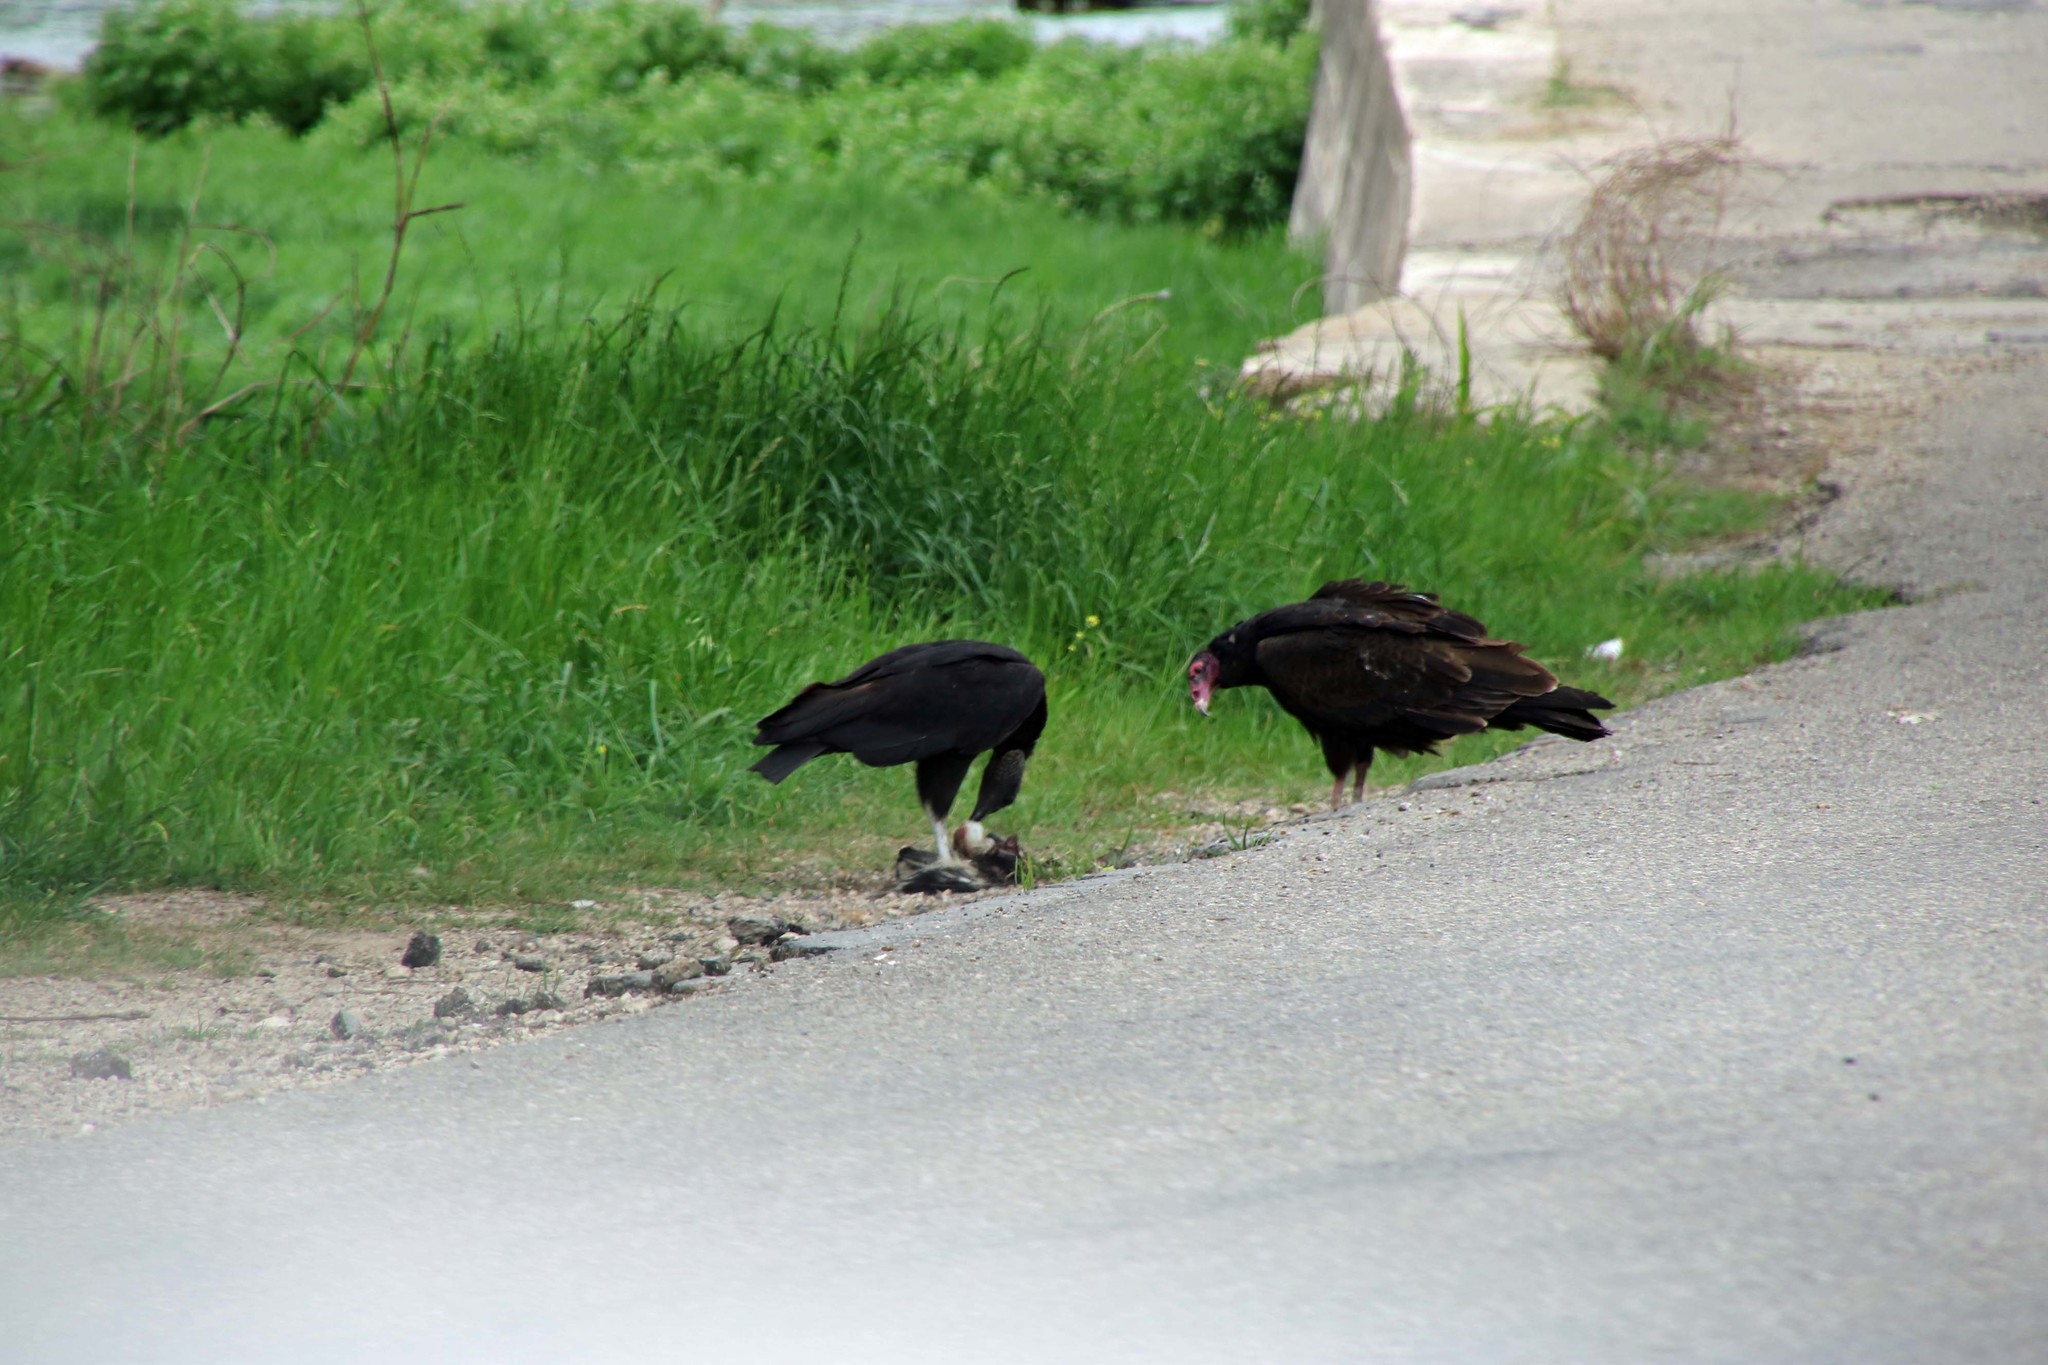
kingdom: Animalia
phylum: Chordata
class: Aves
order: Accipitriformes
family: Cathartidae
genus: Cathartes
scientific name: Cathartes aura
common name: Turkey vulture
